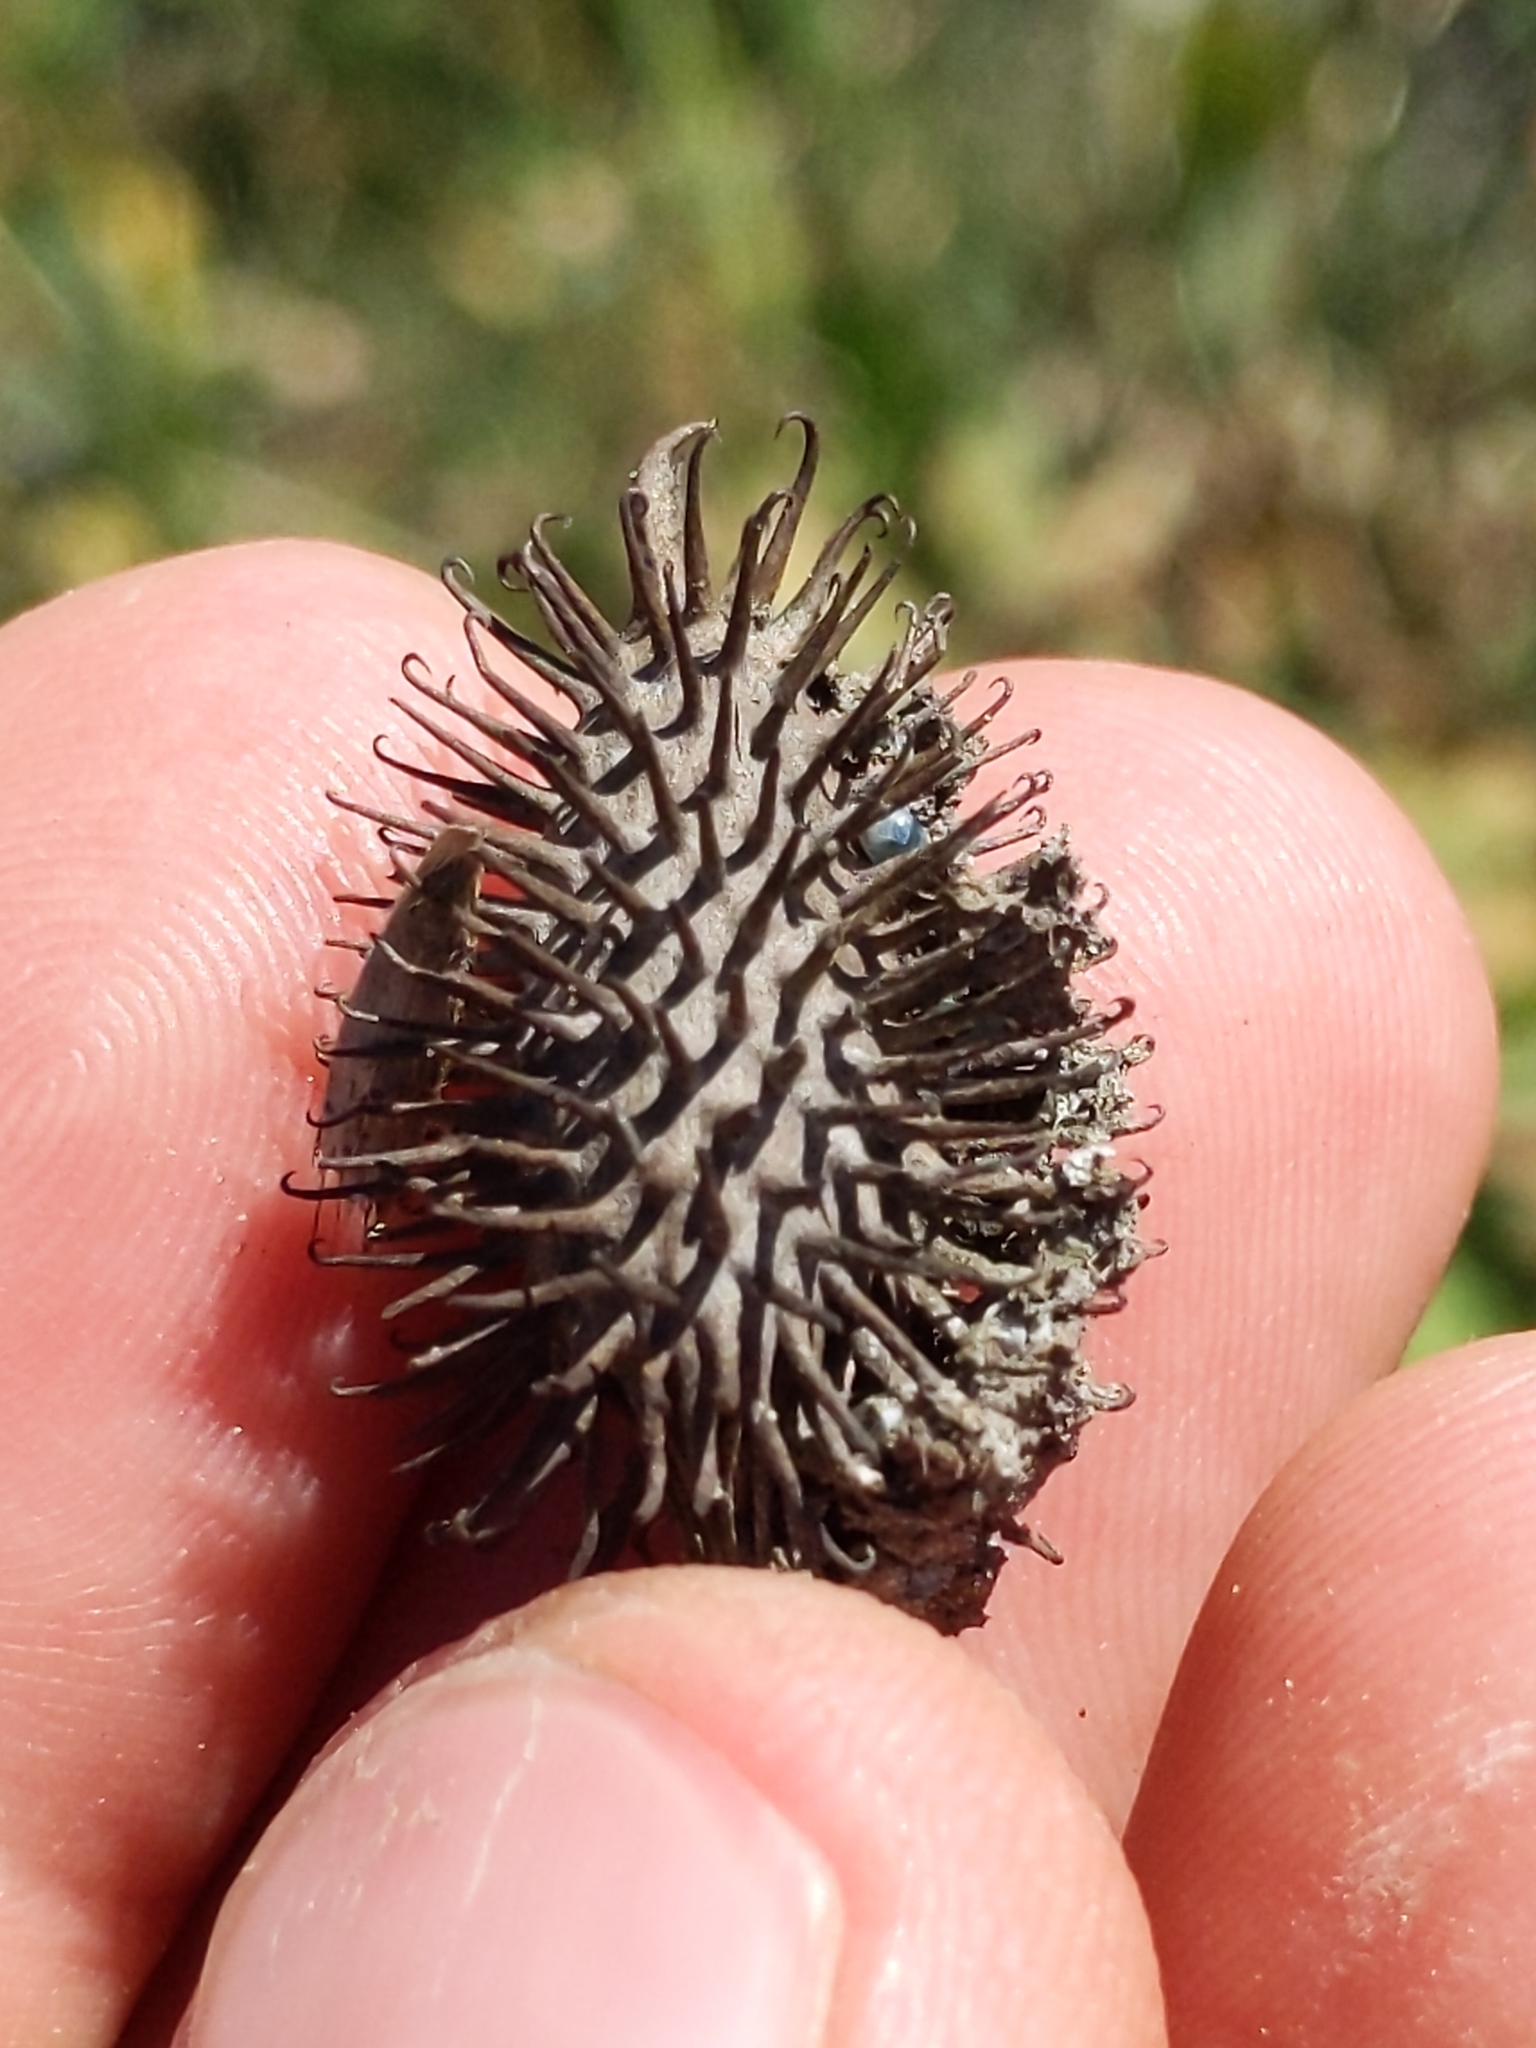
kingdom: Plantae
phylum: Tracheophyta
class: Magnoliopsida
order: Asterales
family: Asteraceae
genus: Xanthium
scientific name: Xanthium strumarium
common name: Rough cocklebur
